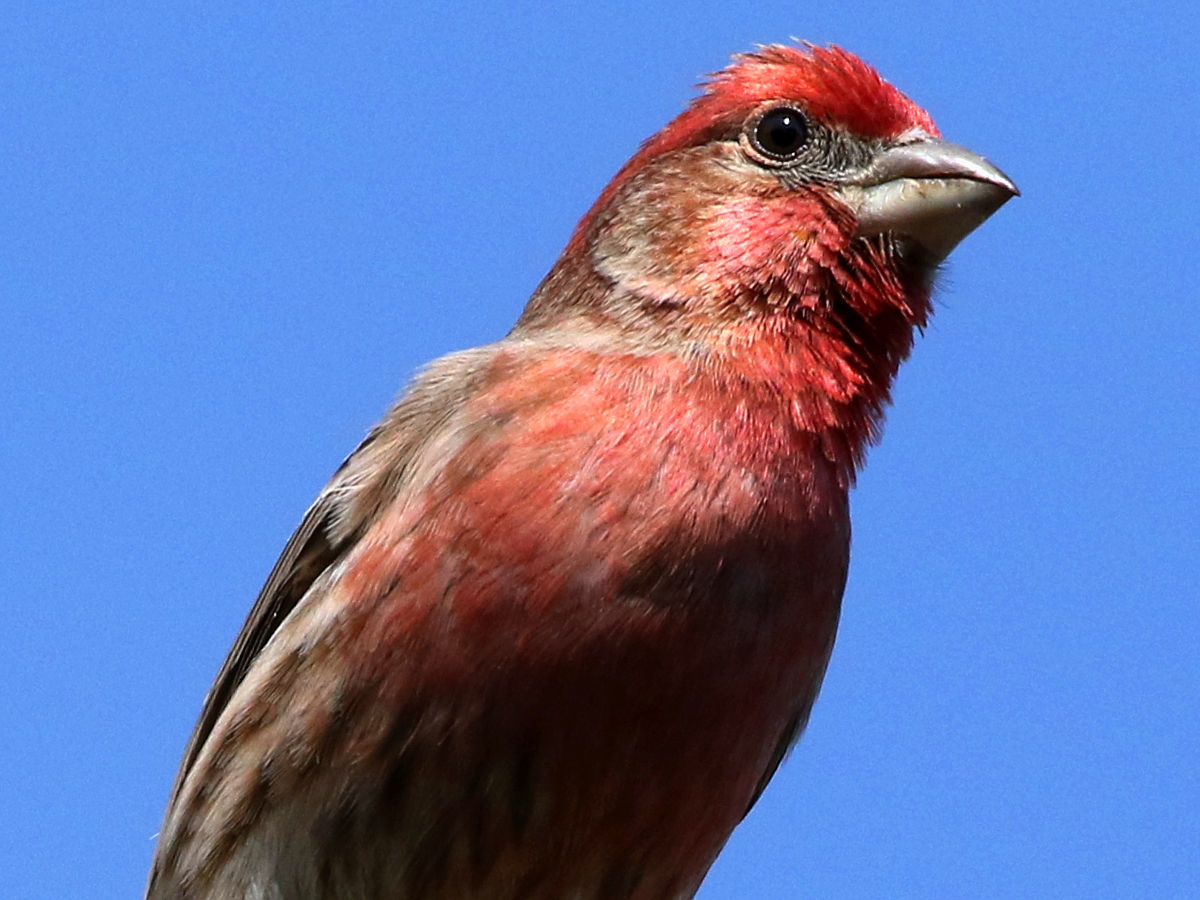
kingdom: Animalia
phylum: Chordata
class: Aves
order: Passeriformes
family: Fringillidae
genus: Haemorhous
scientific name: Haemorhous mexicanus
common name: House finch
